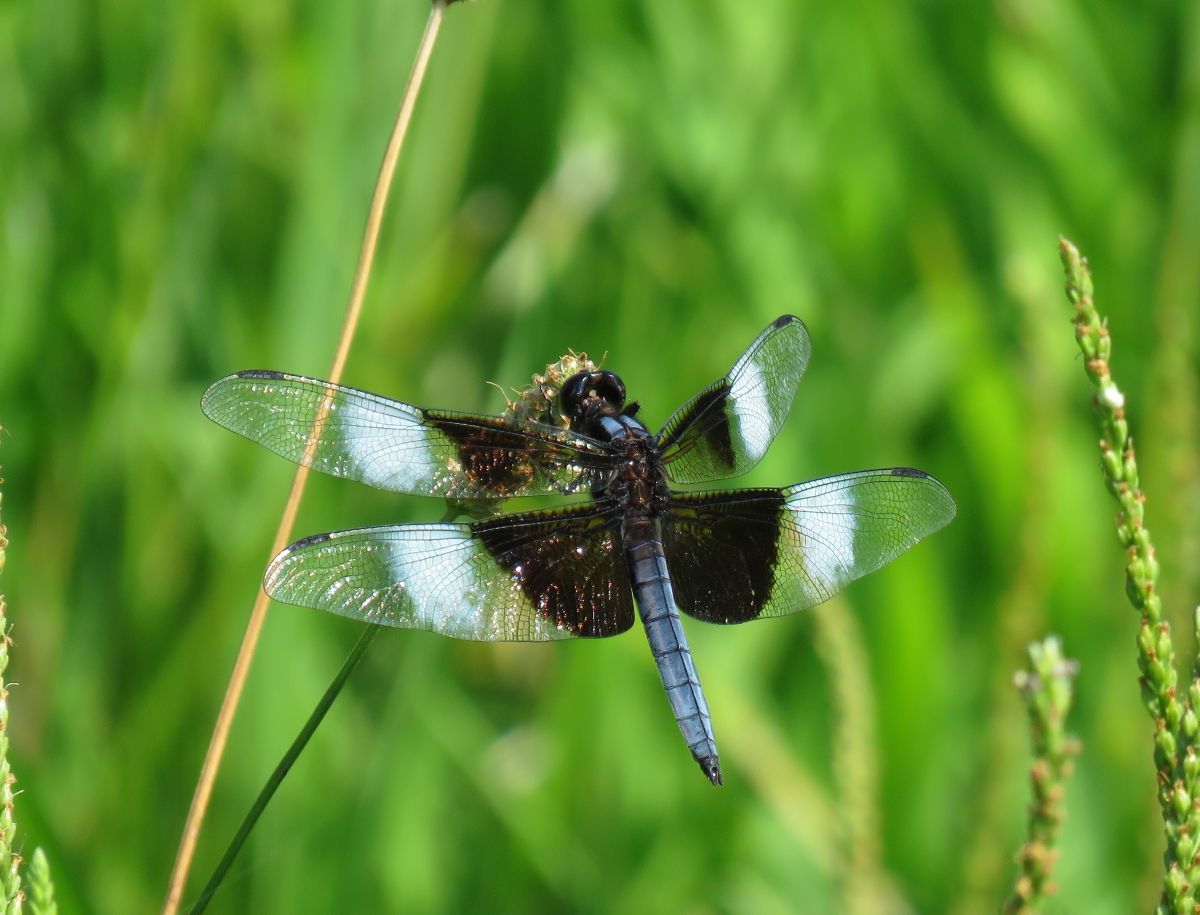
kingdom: Animalia
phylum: Arthropoda
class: Insecta
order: Odonata
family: Libellulidae
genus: Libellula
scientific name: Libellula luctuosa
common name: Widow skimmer
